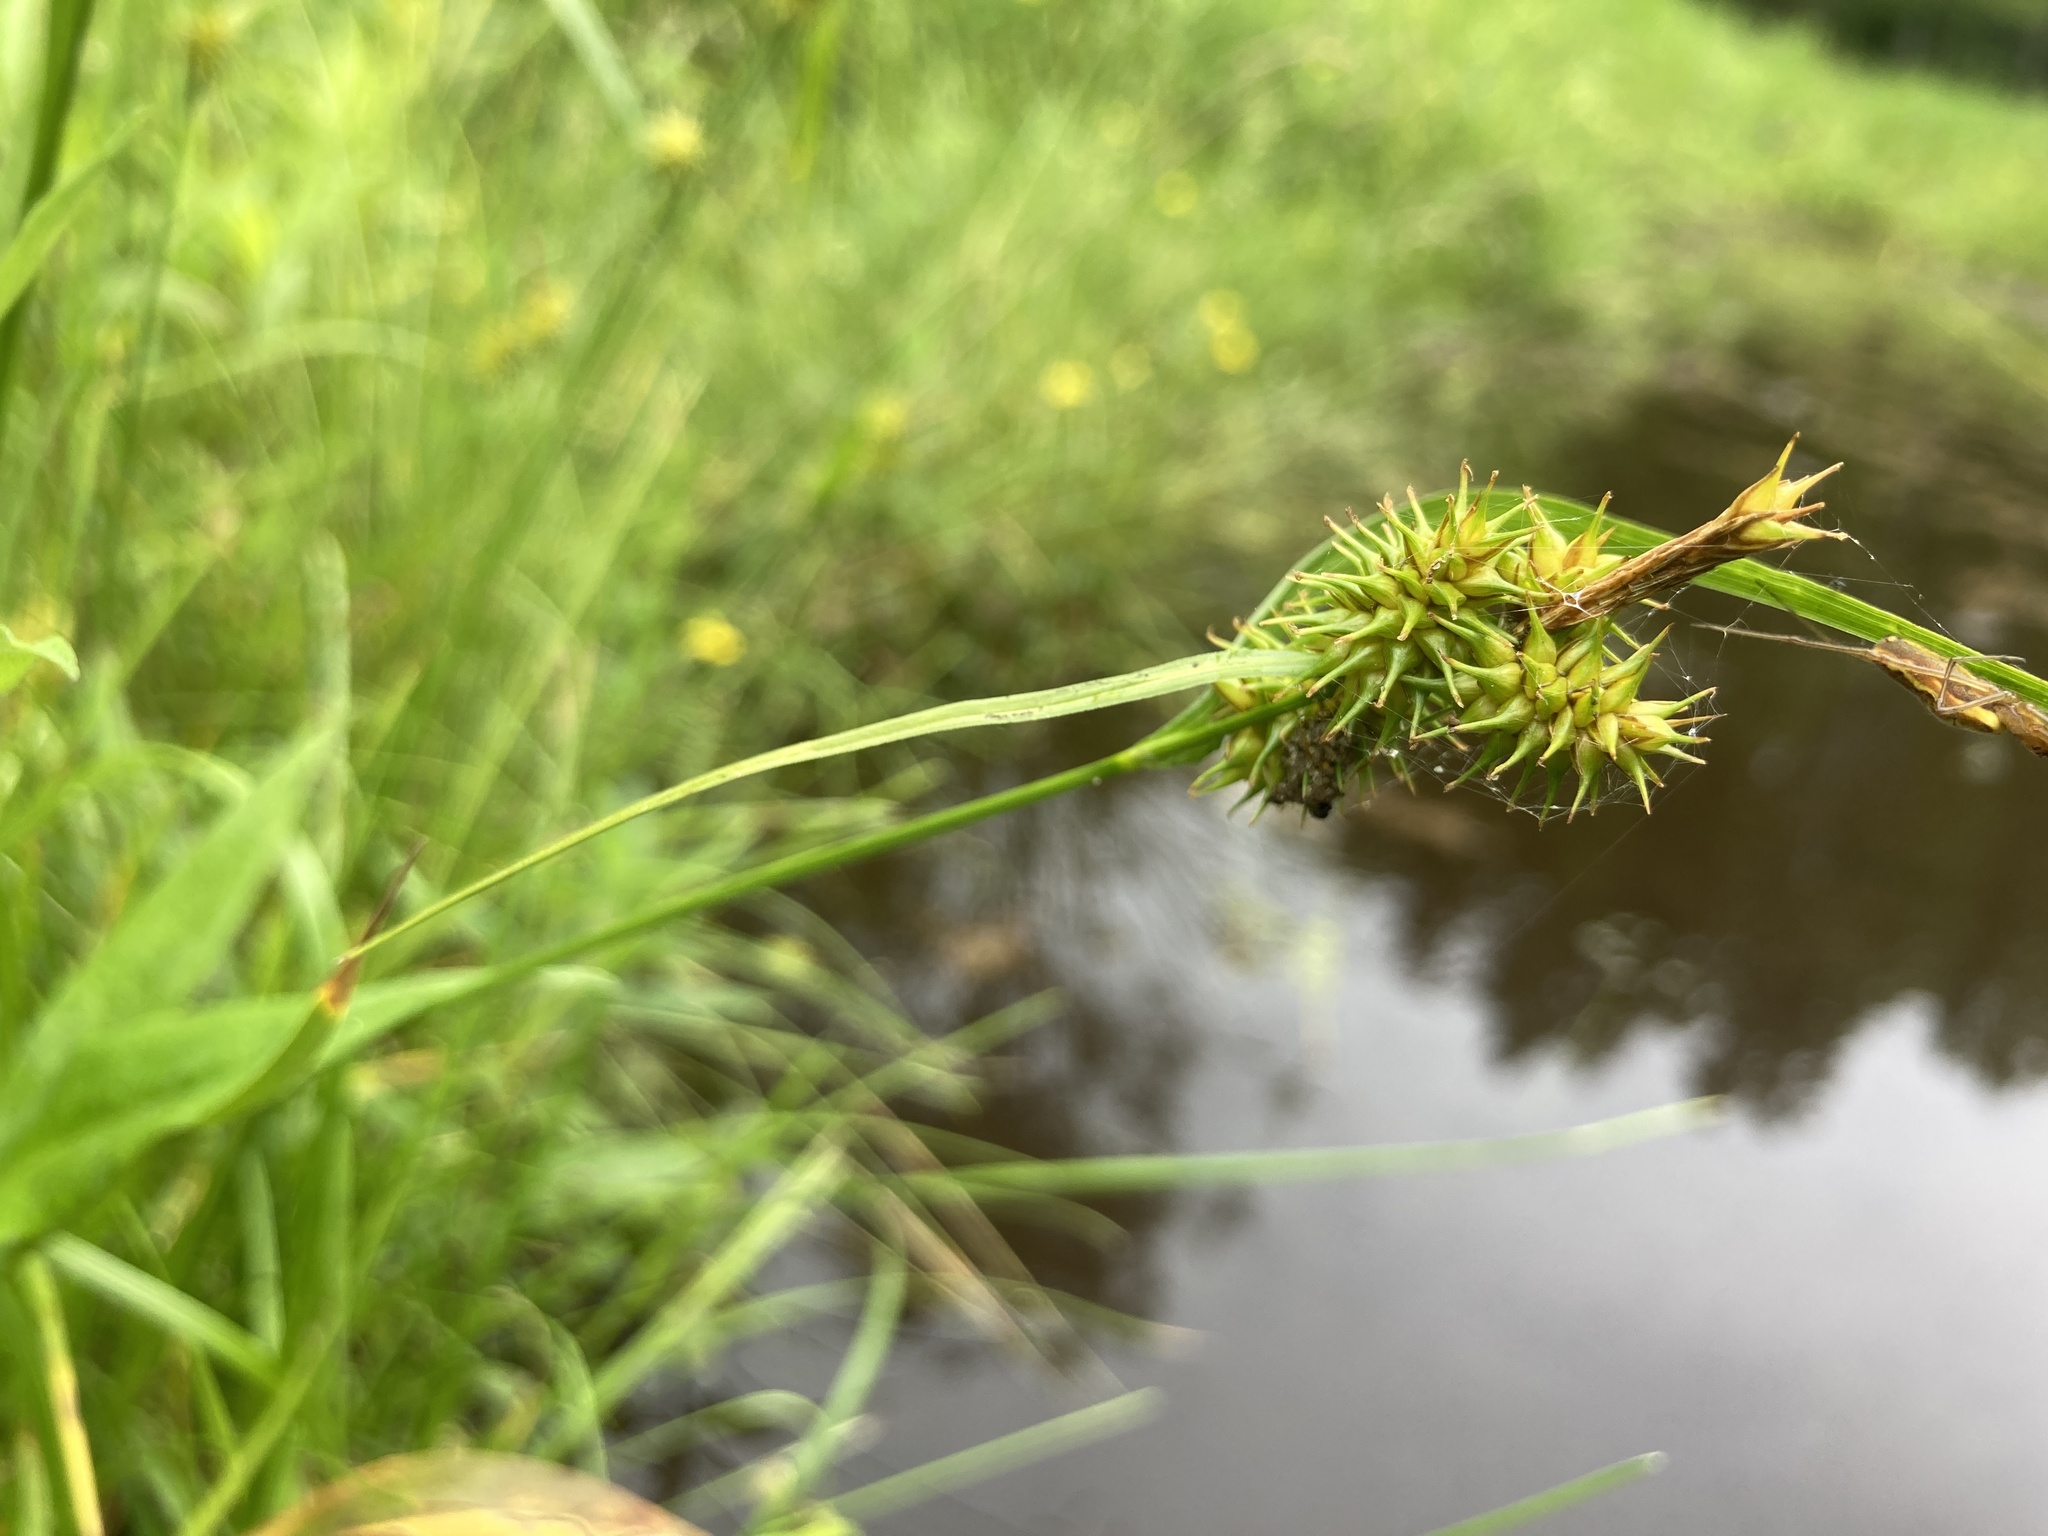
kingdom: Plantae
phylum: Tracheophyta
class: Liliopsida
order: Poales
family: Cyperaceae
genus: Carex
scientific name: Carex flava
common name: Large yellow-sedge
